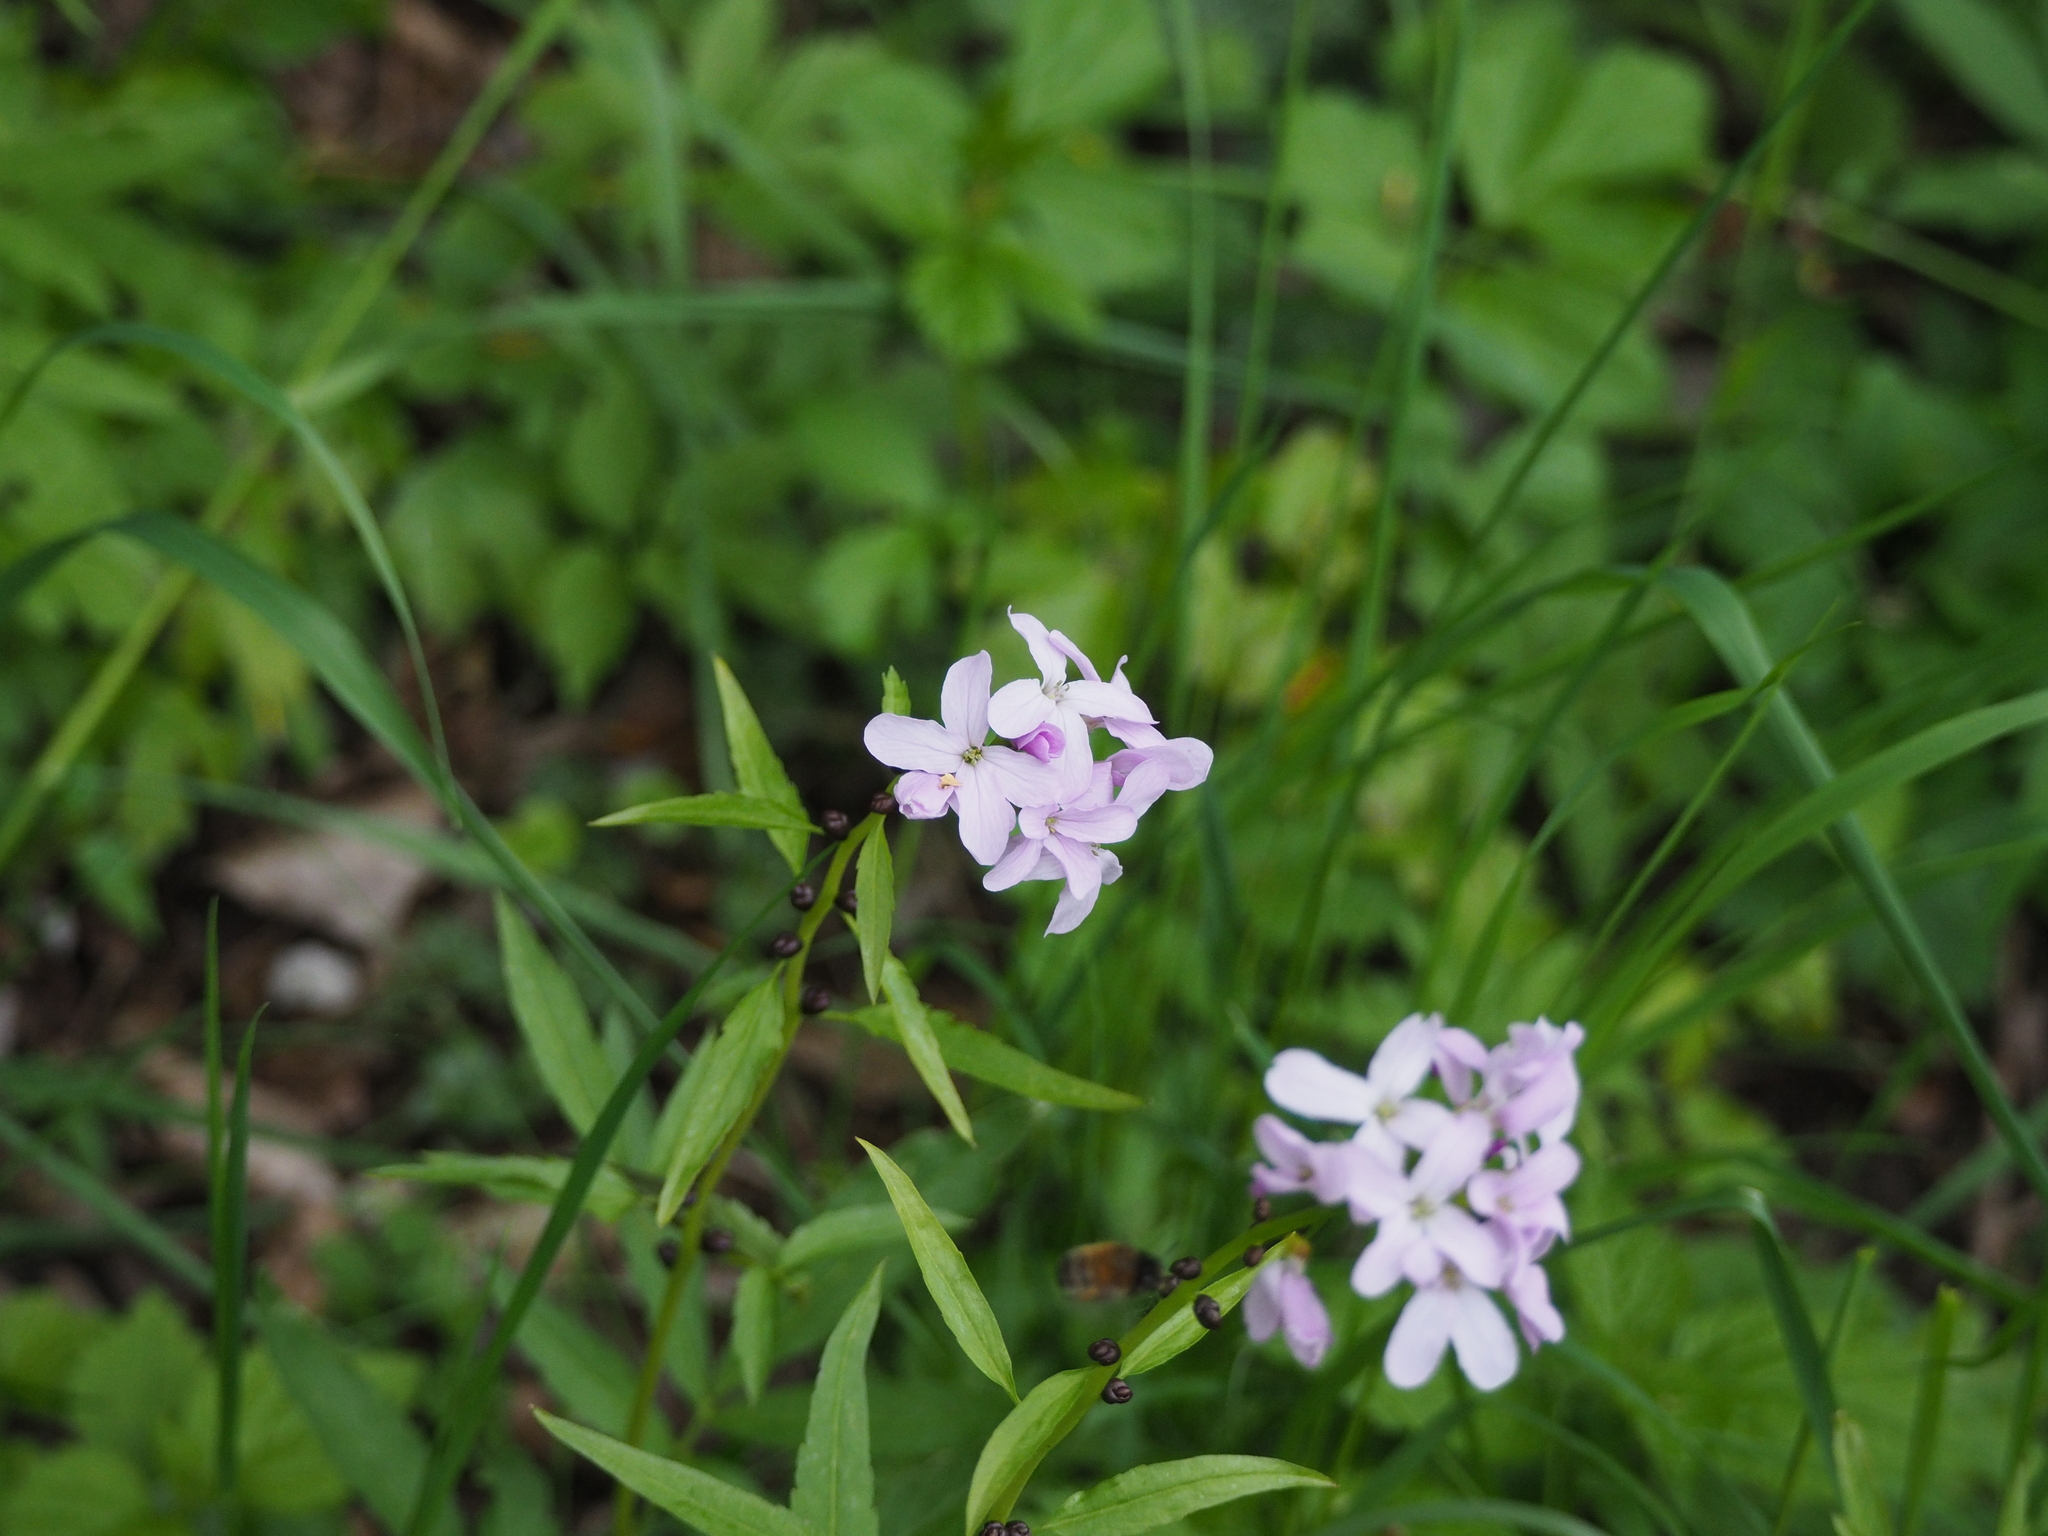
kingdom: Plantae
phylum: Tracheophyta
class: Magnoliopsida
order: Brassicales
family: Brassicaceae
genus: Cardamine
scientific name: Cardamine bulbifera
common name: Coralroot bittercress
